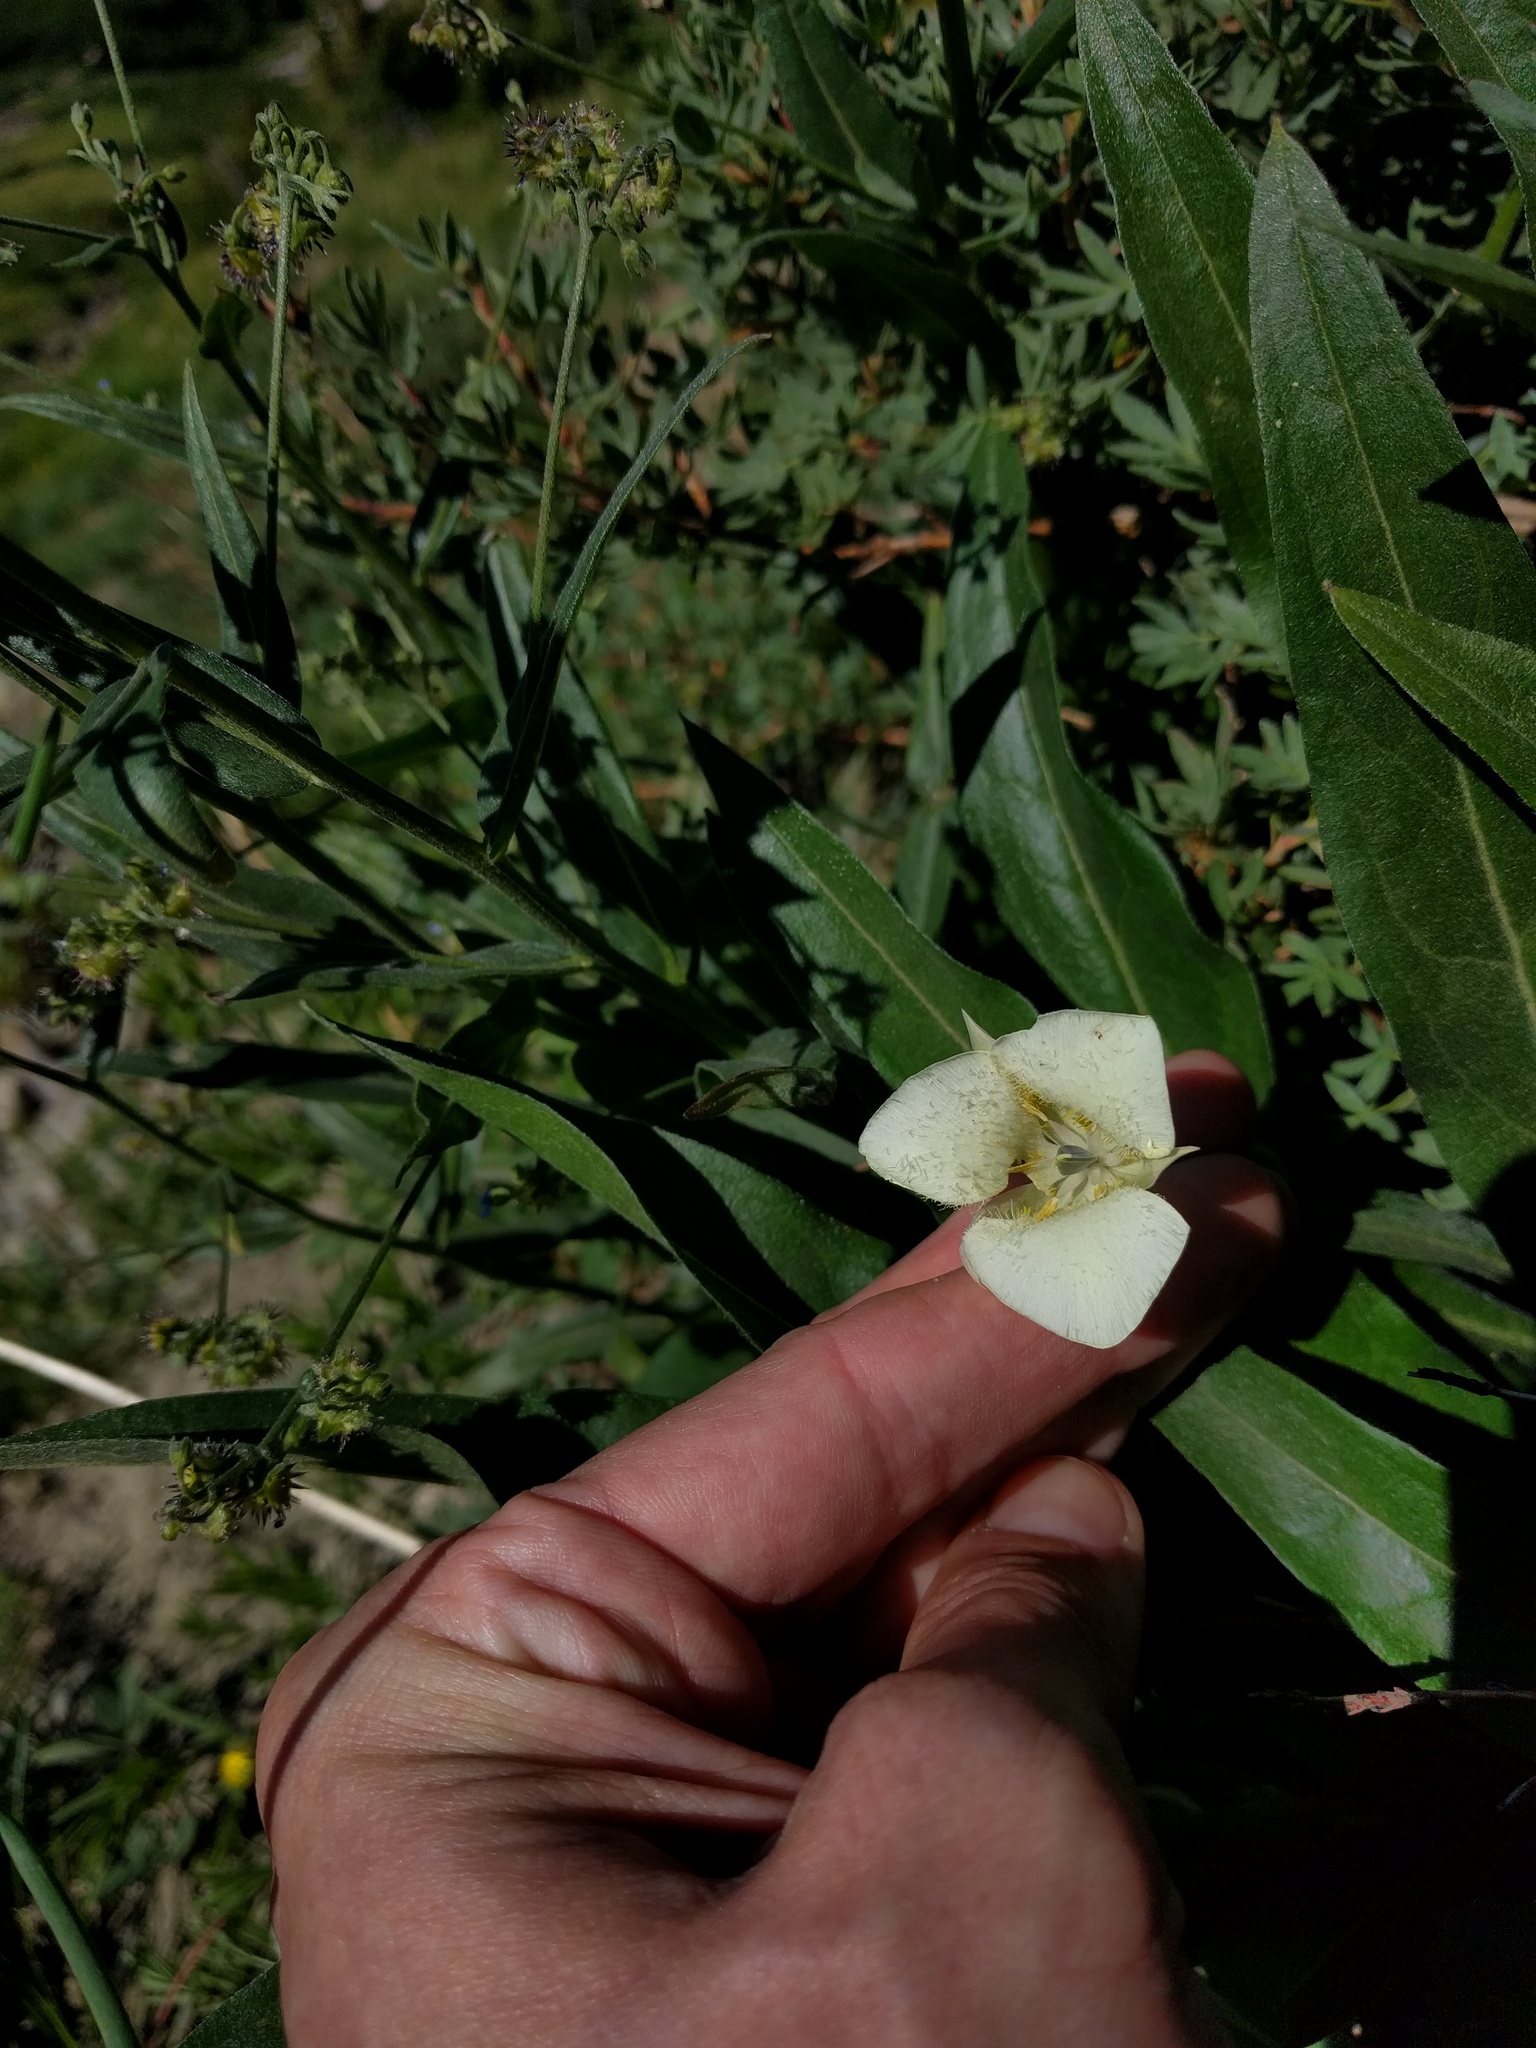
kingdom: Plantae
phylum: Tracheophyta
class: Liliopsida
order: Liliales
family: Liliaceae
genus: Calochortus
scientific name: Calochortus apiculatus
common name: Baker's mariposa lily
